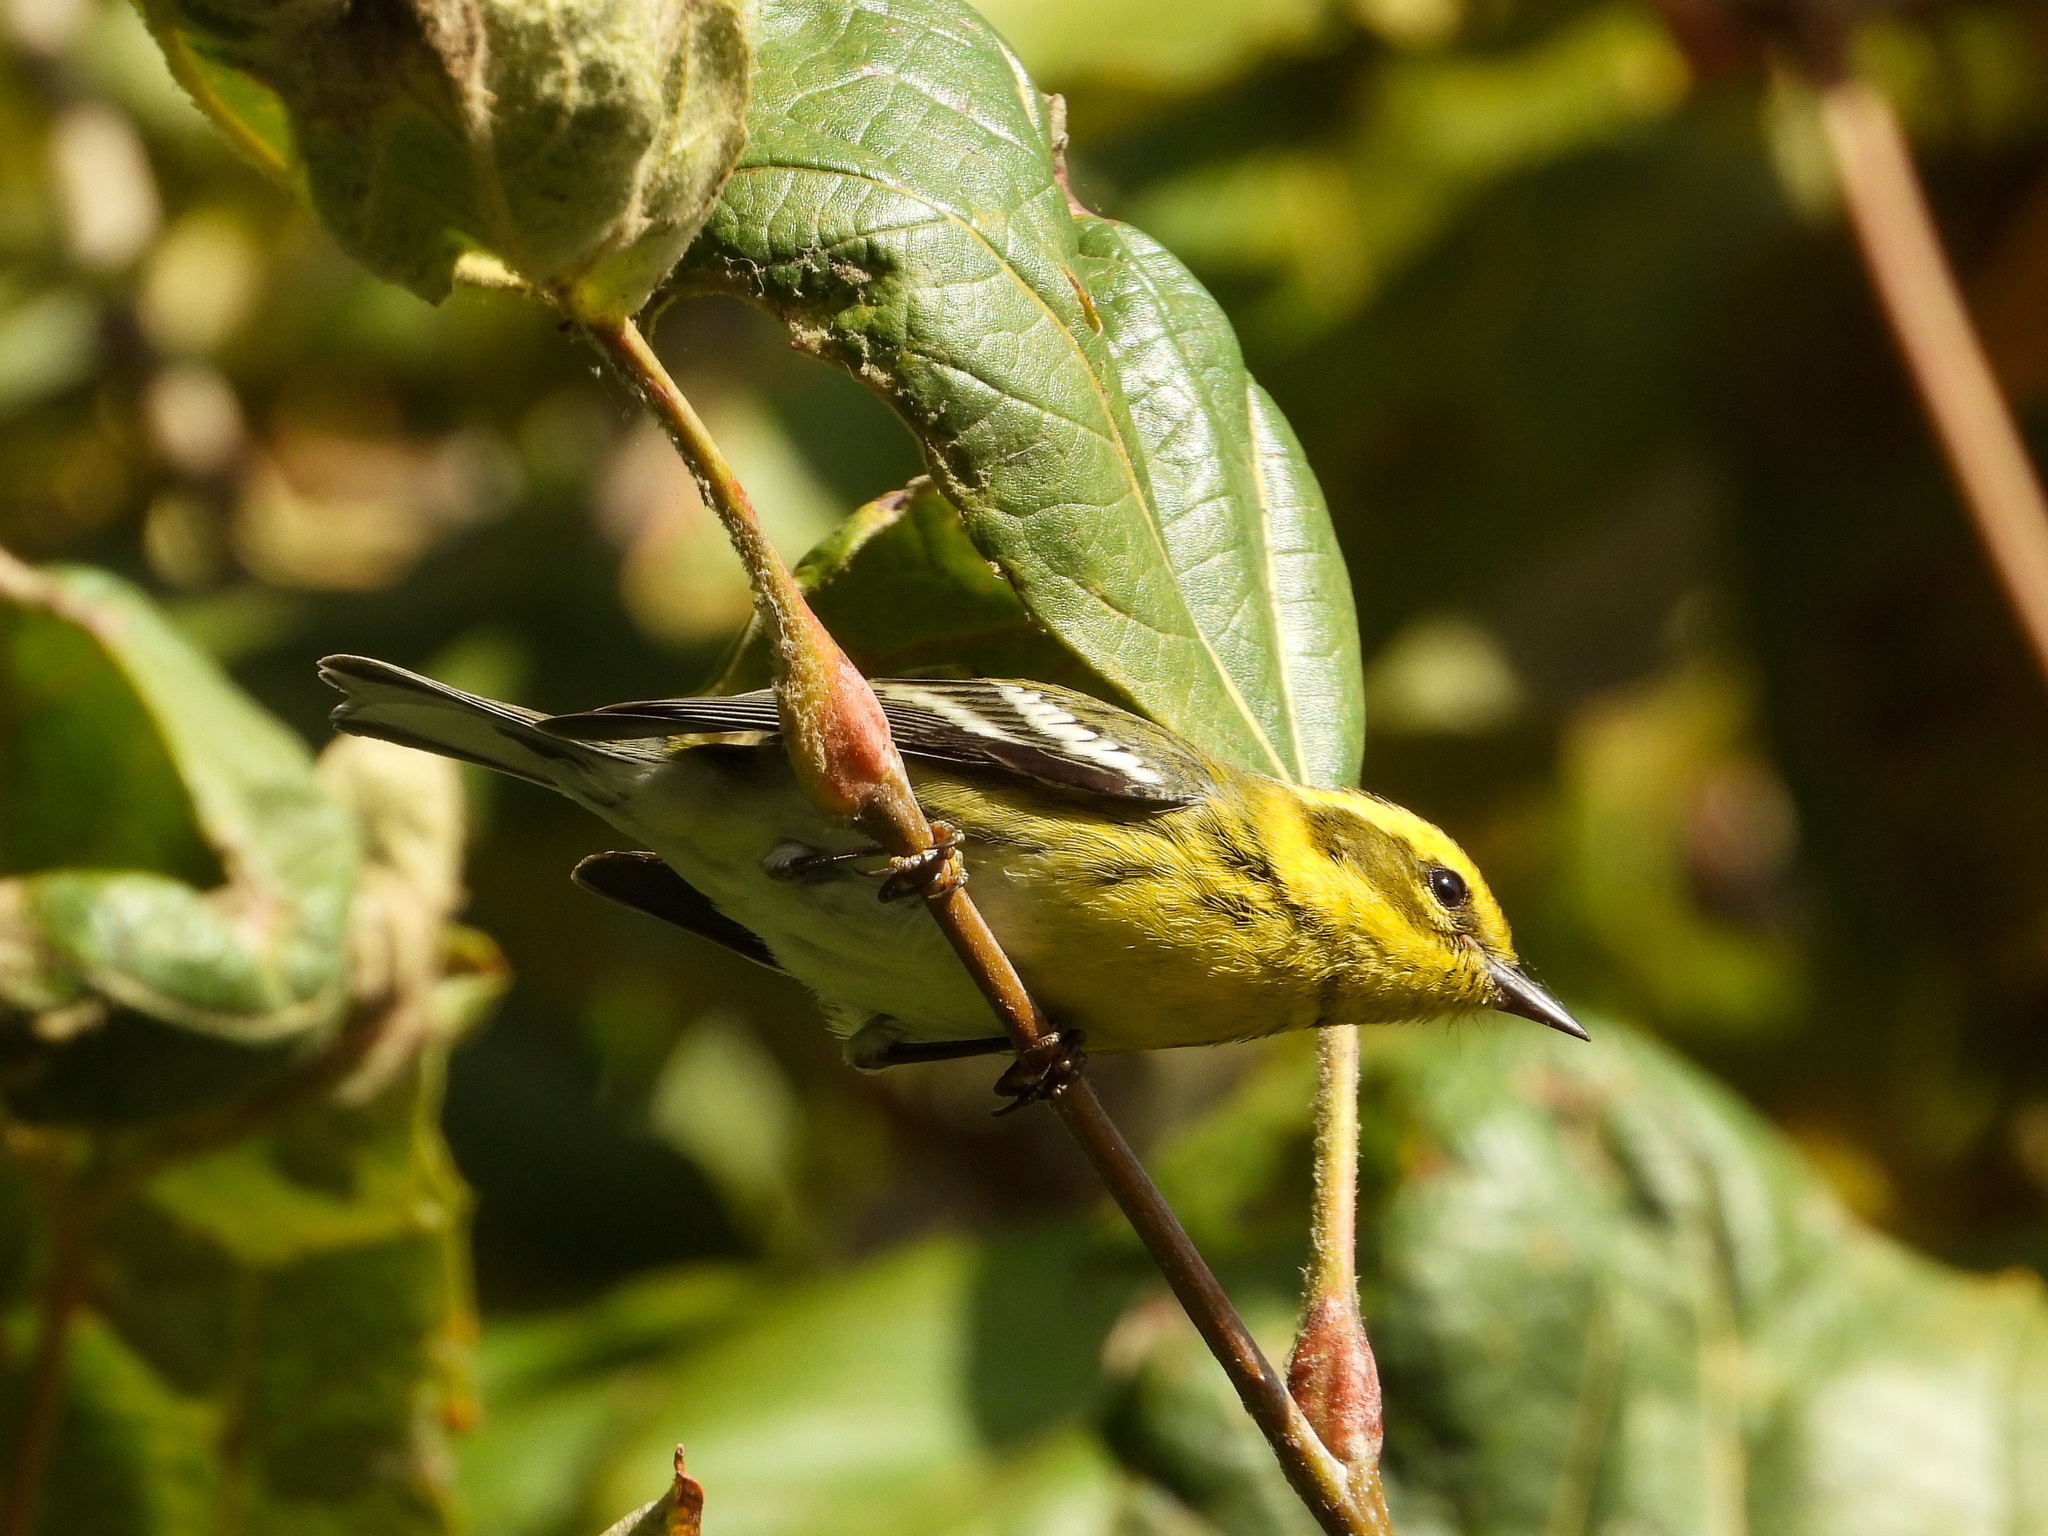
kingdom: Animalia
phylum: Chordata
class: Aves
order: Passeriformes
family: Parulidae
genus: Setophaga
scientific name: Setophaga townsendi
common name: Townsend's warbler
